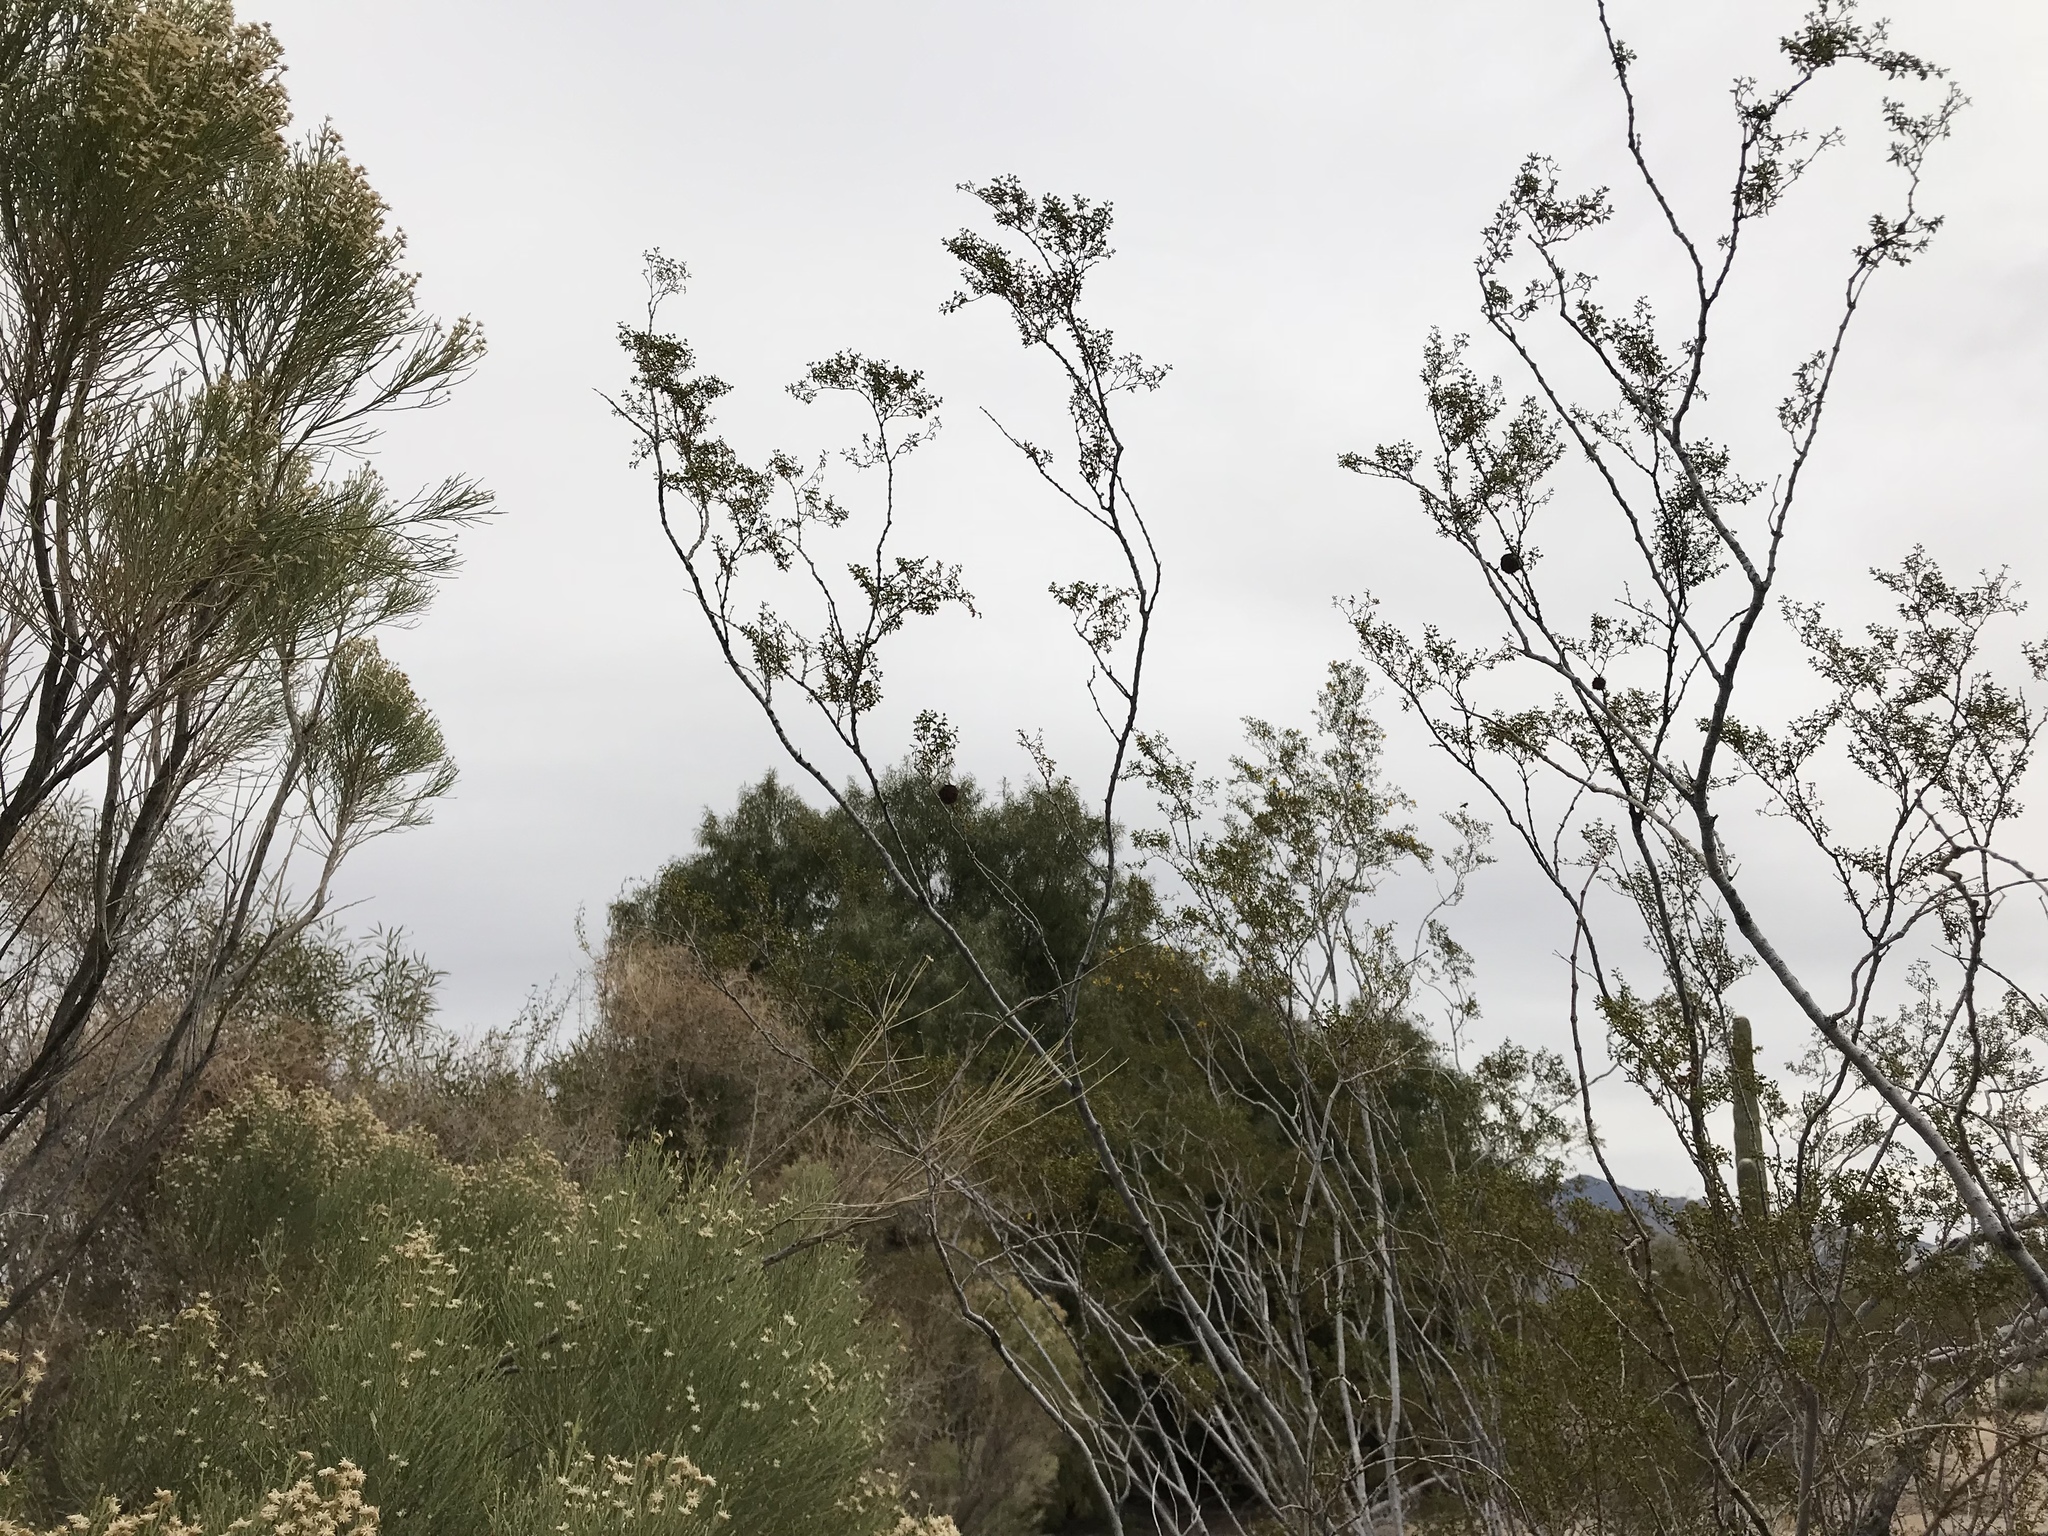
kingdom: Plantae
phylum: Tracheophyta
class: Magnoliopsida
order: Zygophyllales
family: Zygophyllaceae
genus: Larrea
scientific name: Larrea tridentata
